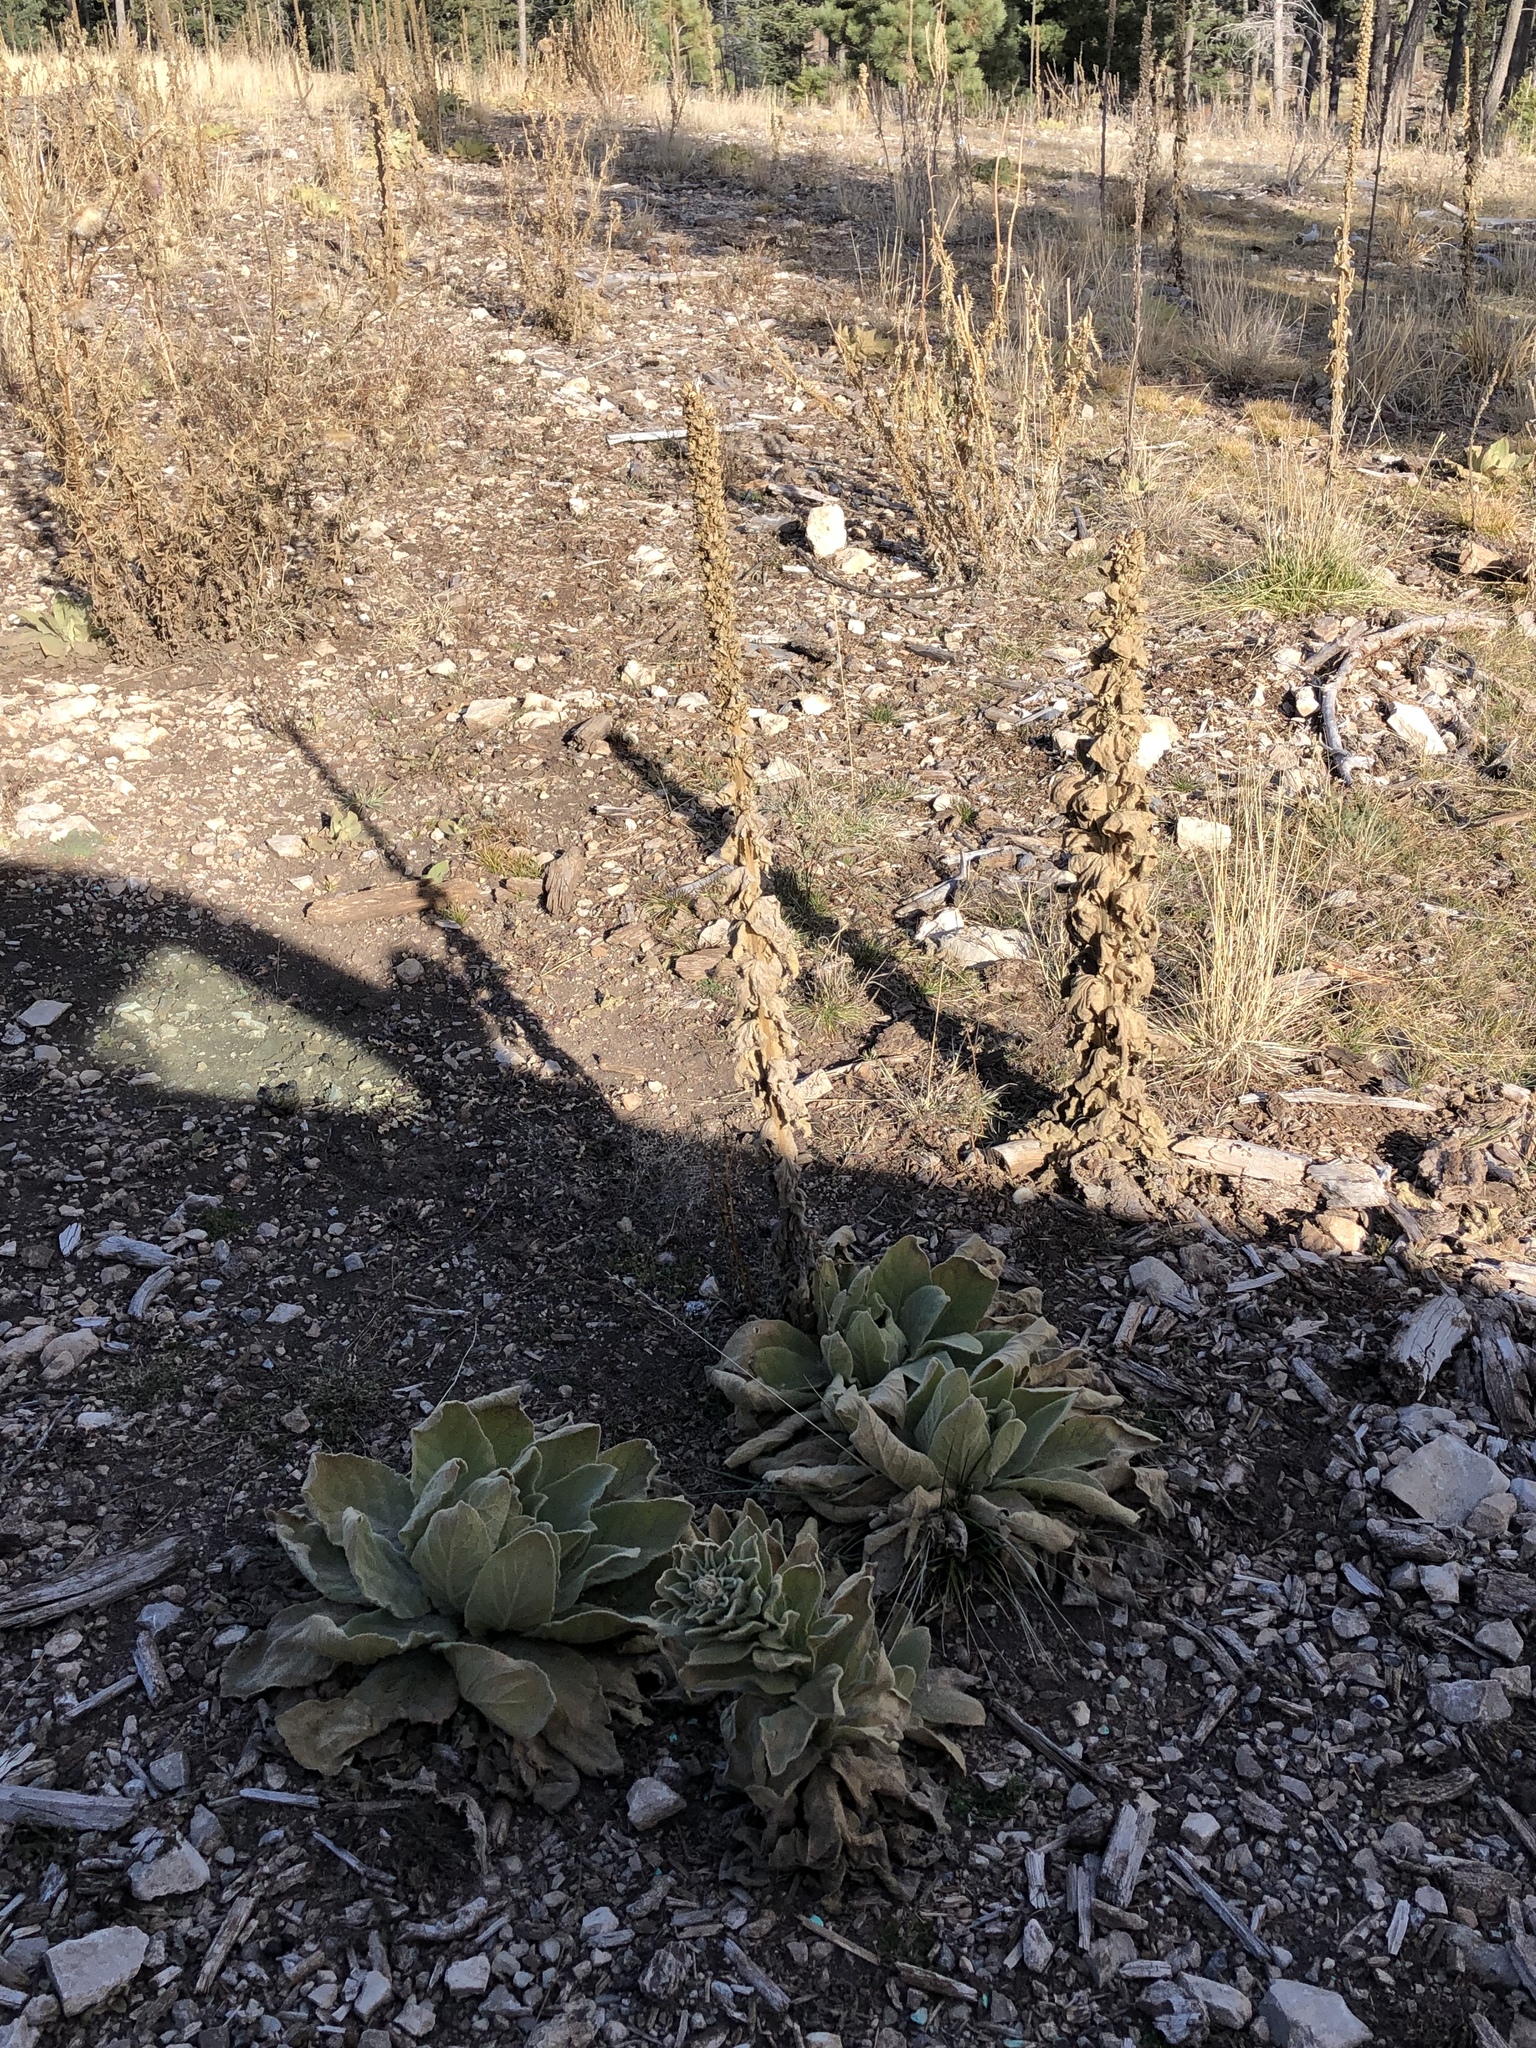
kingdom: Plantae
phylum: Tracheophyta
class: Magnoliopsida
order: Lamiales
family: Scrophulariaceae
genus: Verbascum
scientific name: Verbascum thapsus
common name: Common mullein
